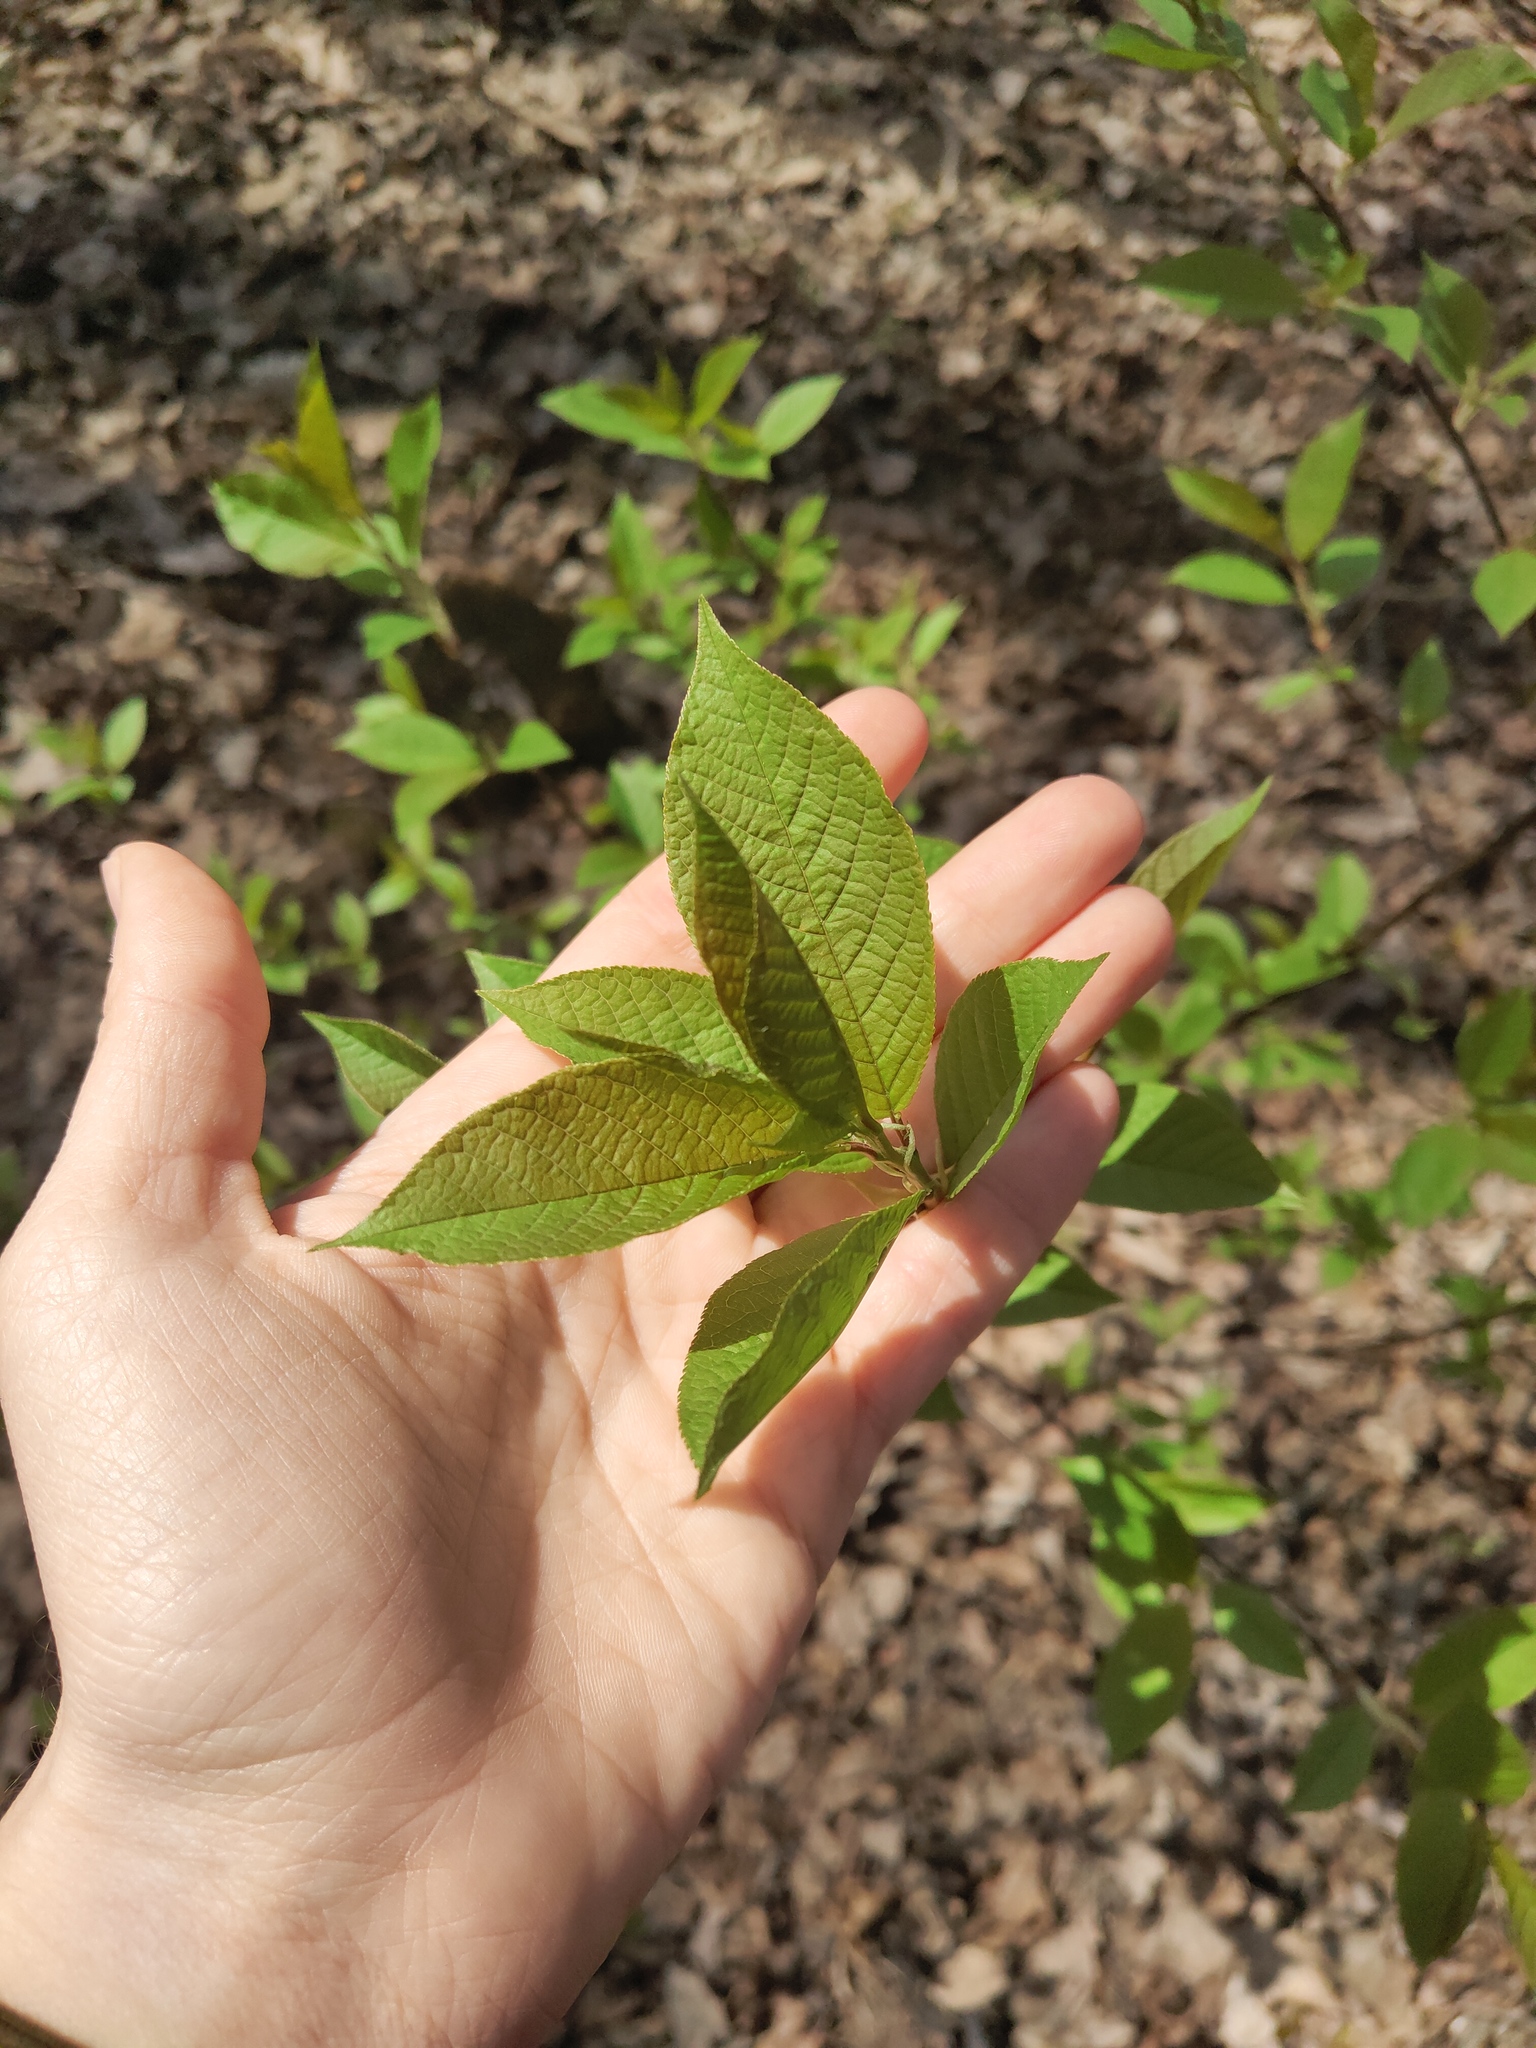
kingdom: Plantae
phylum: Tracheophyta
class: Magnoliopsida
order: Rosales
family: Rosaceae
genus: Prunus
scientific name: Prunus padus
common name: Bird cherry
